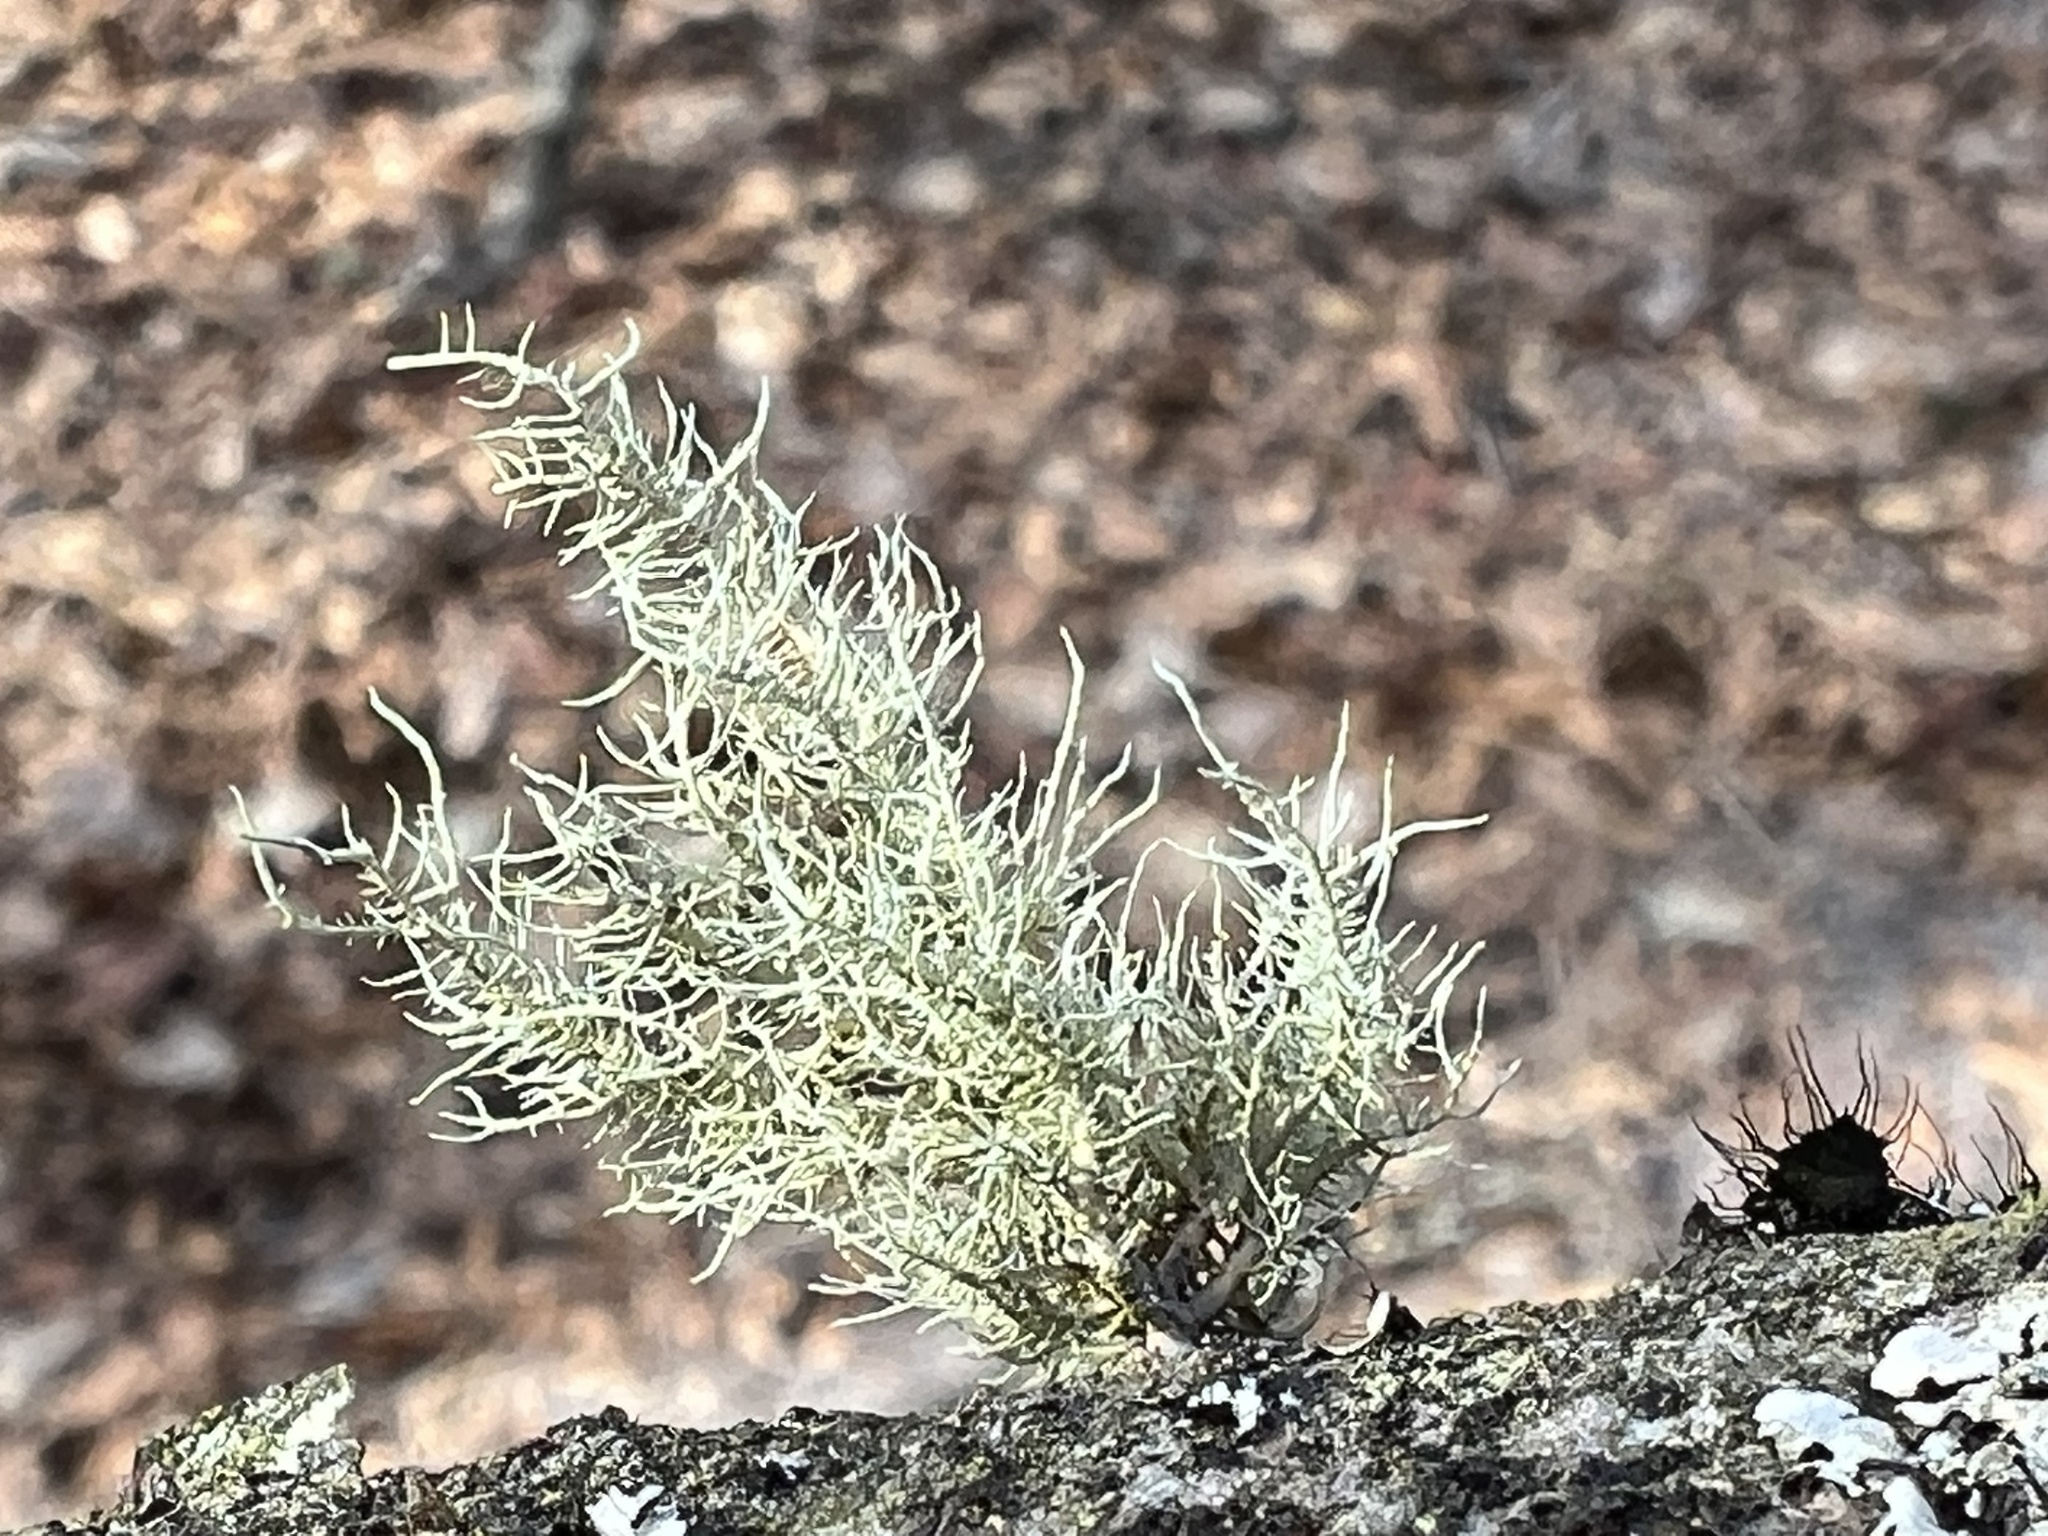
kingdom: Fungi
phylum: Ascomycota
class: Lecanoromycetes
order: Lecanorales
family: Parmeliaceae
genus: Usnea
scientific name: Usnea strigosa
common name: Bushy beard lichen
